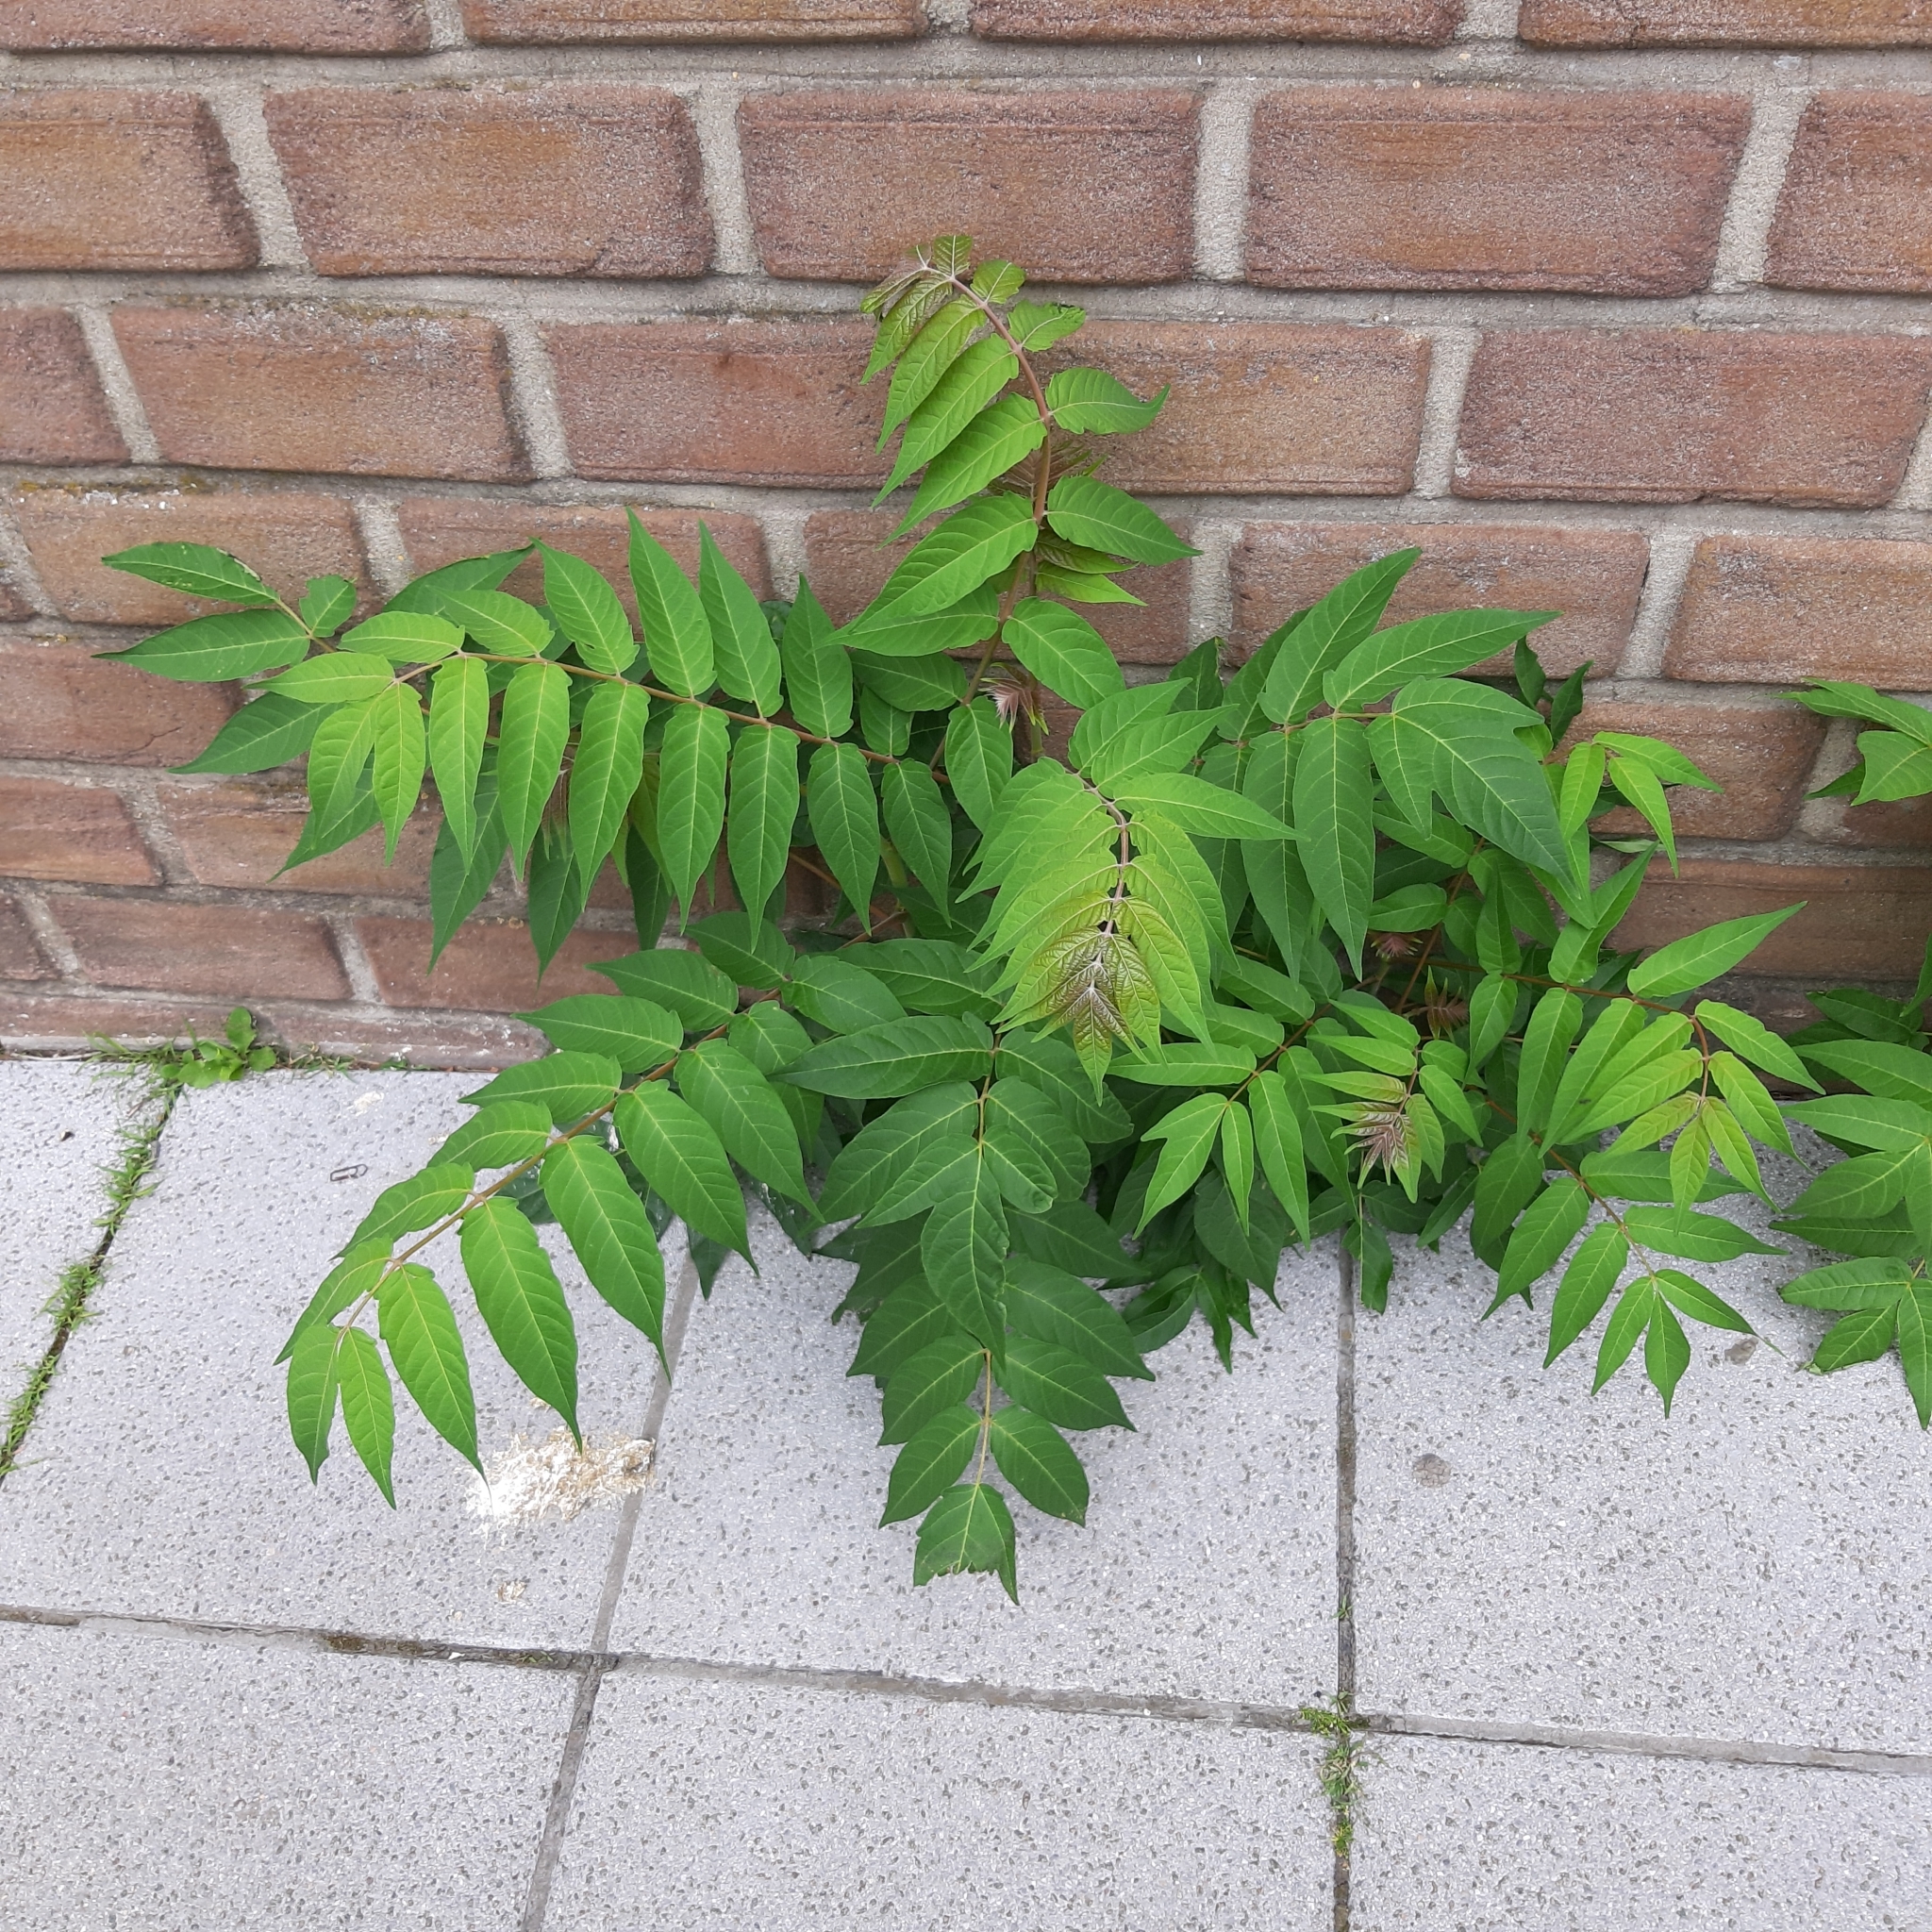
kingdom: Plantae
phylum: Tracheophyta
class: Magnoliopsida
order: Sapindales
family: Simaroubaceae
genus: Ailanthus
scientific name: Ailanthus altissima
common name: Tree-of-heaven
